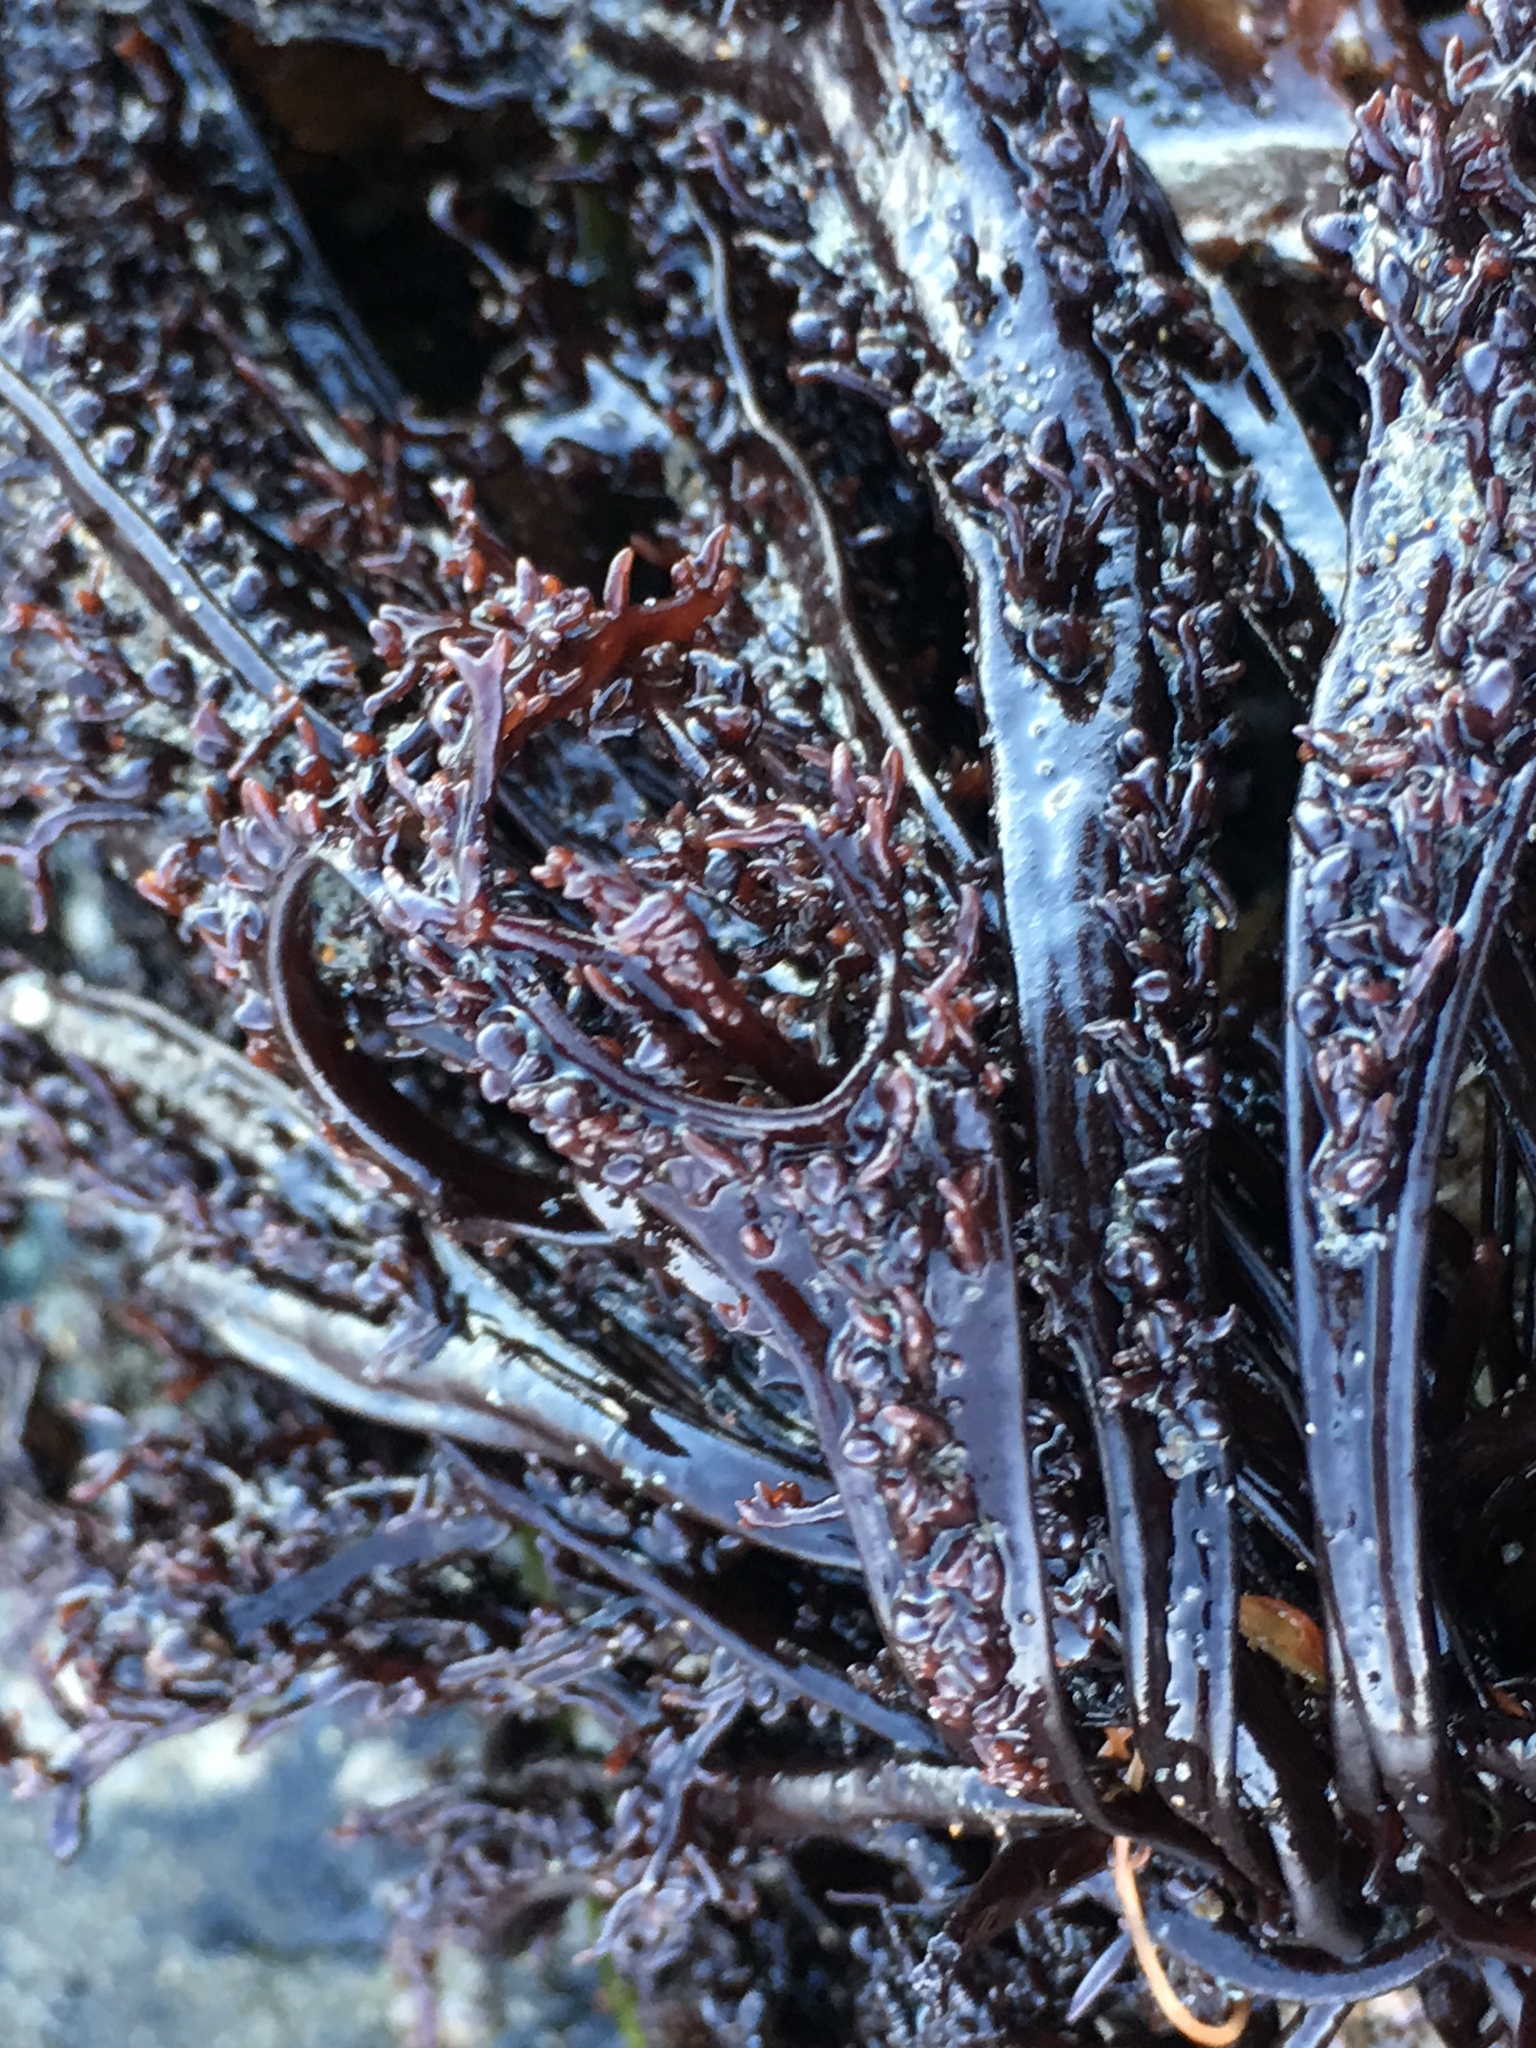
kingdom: Plantae
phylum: Rhodophyta
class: Florideophyceae
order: Gigartinales
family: Phyllophoraceae
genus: Mastocarpus
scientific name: Mastocarpus papillatus
